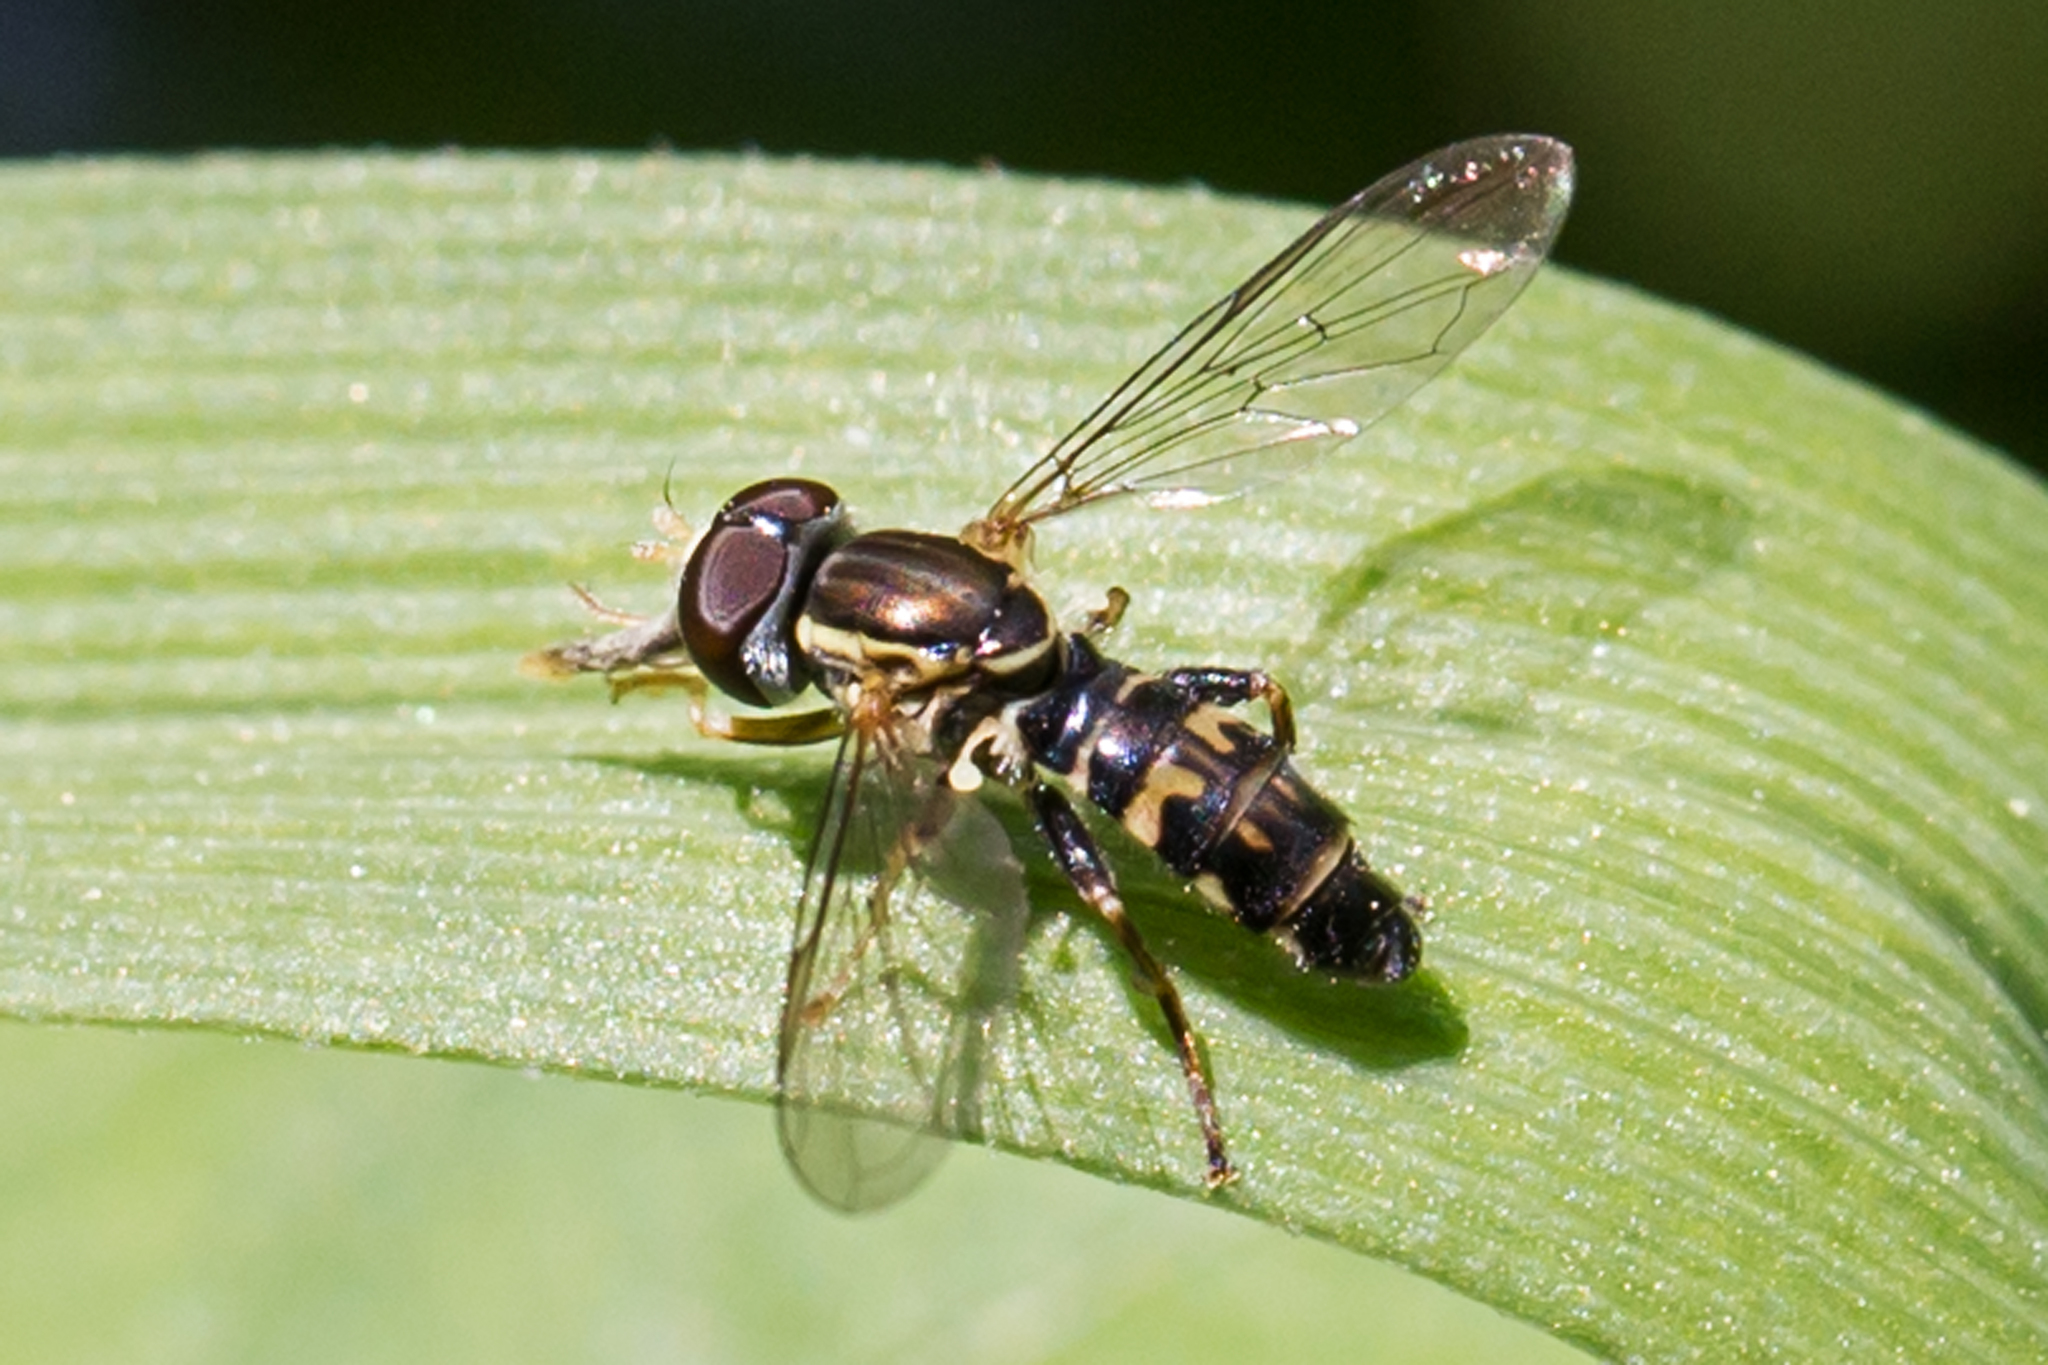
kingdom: Animalia
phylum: Arthropoda
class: Insecta
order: Diptera
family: Syrphidae
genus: Toxomerus
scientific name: Toxomerus geminatus
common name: Eastern calligrapher
